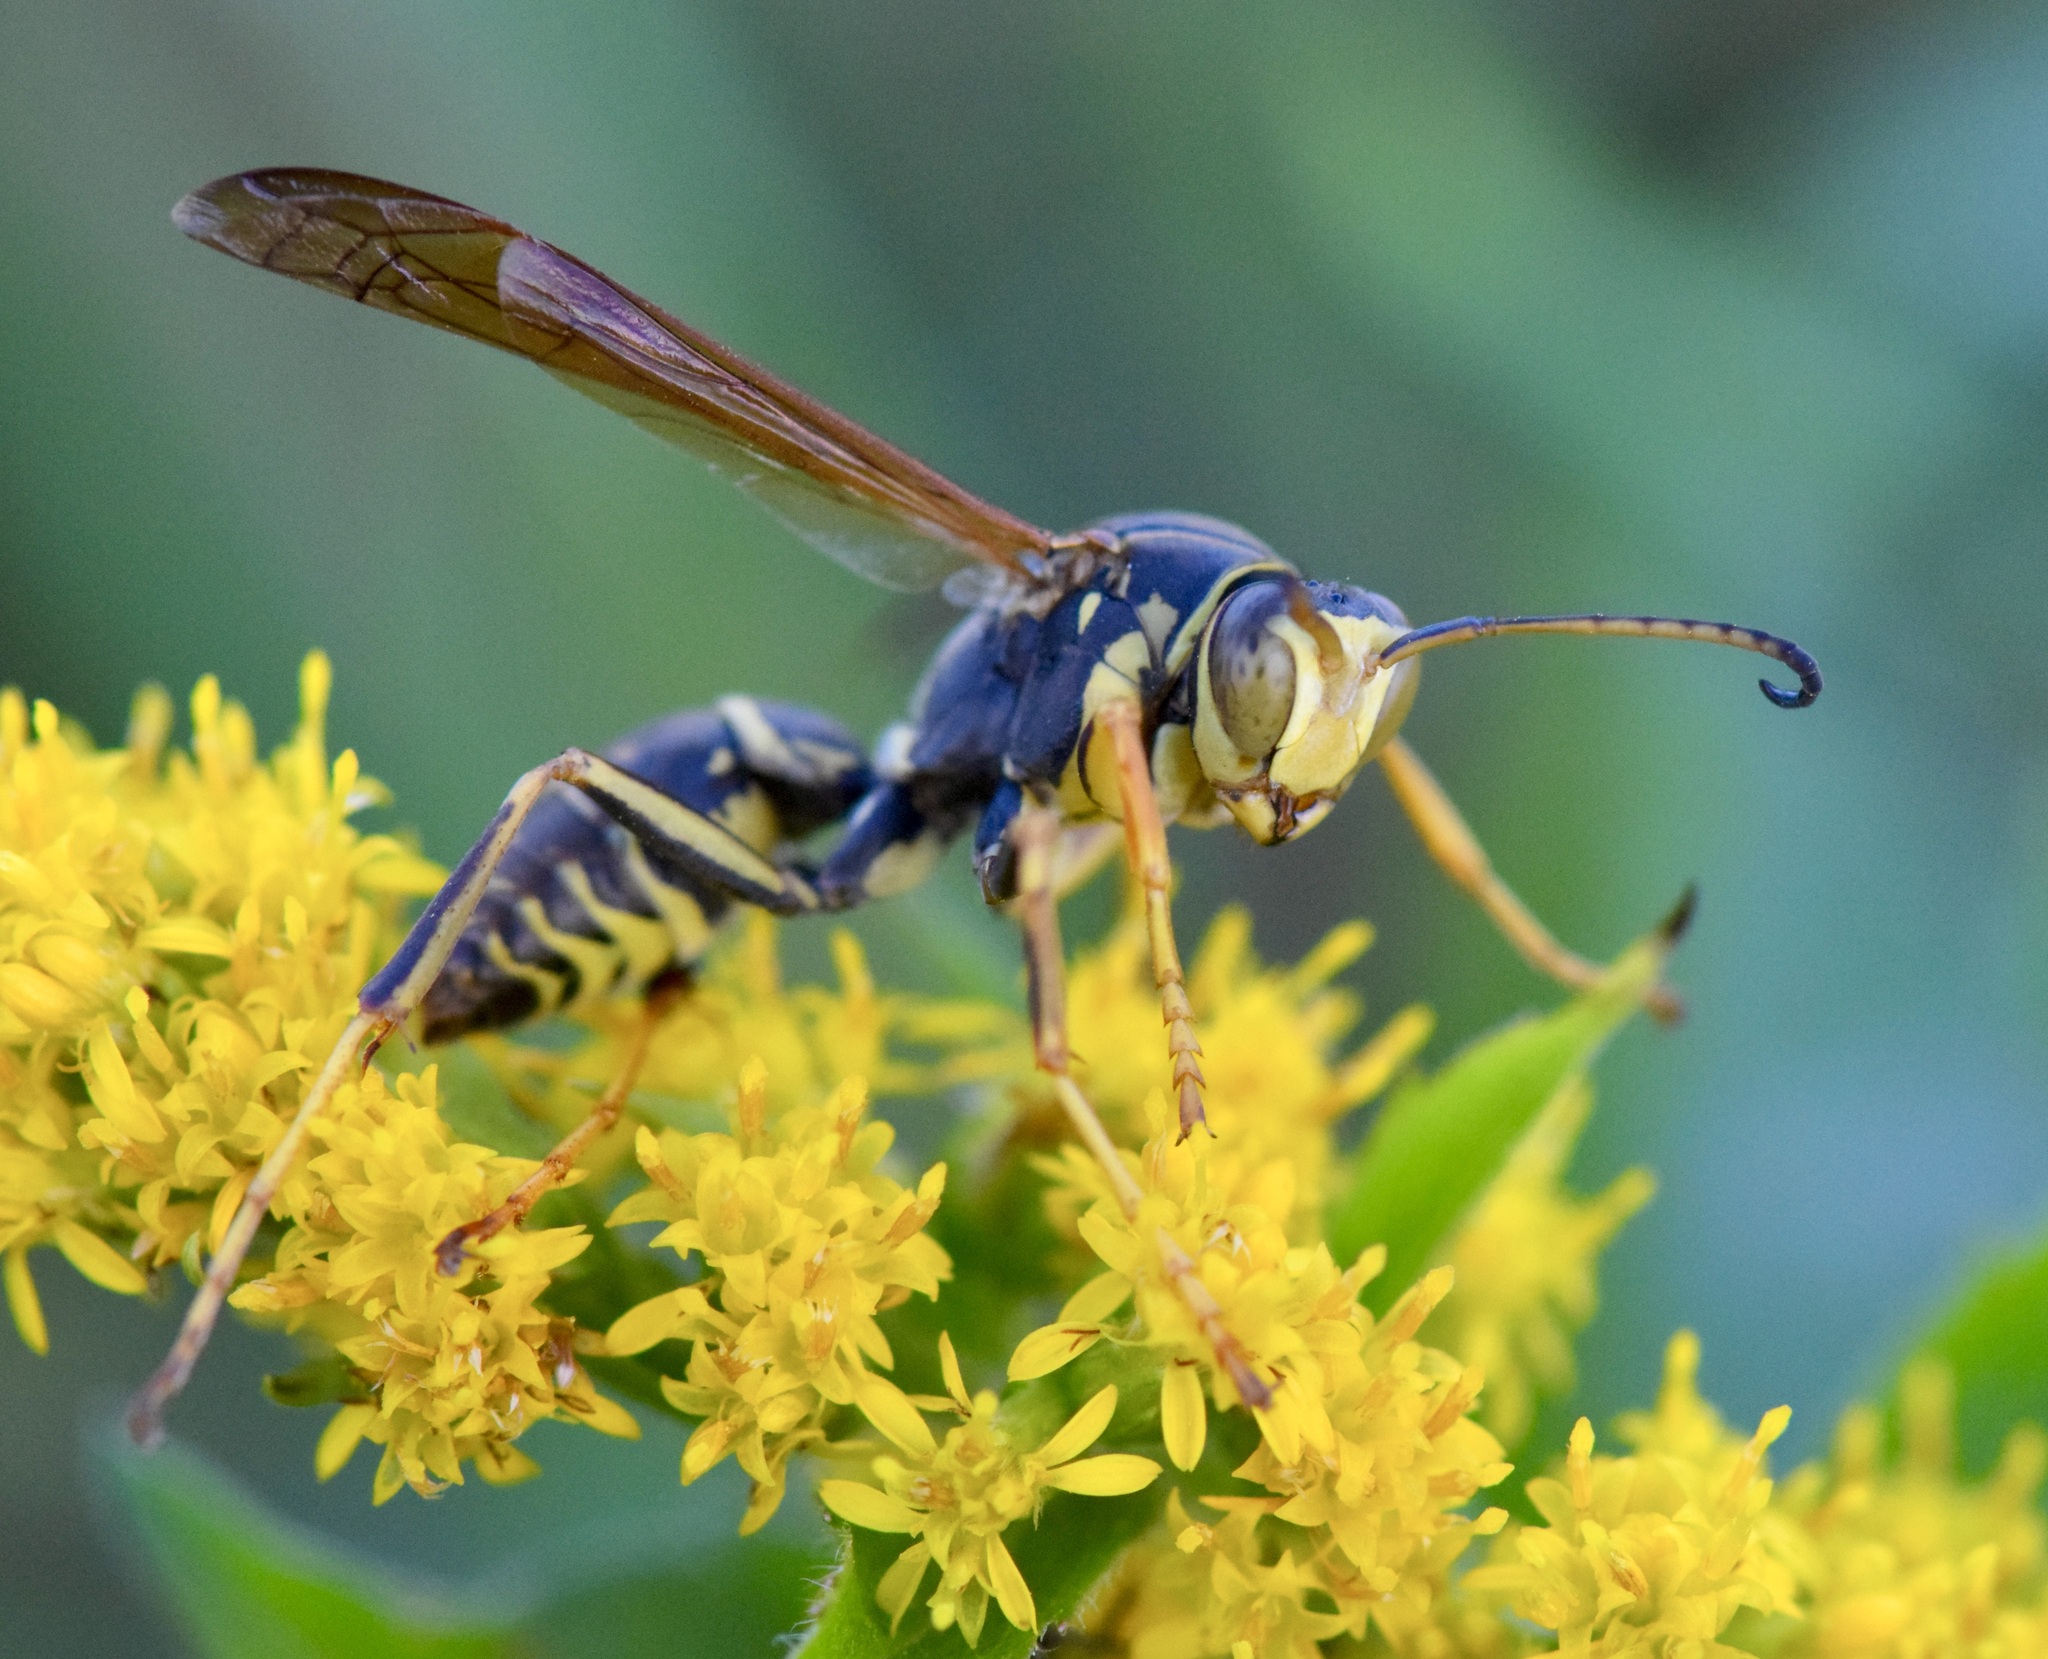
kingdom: Animalia
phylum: Arthropoda
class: Insecta
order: Hymenoptera
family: Eumenidae
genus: Polistes
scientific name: Polistes fuscatus
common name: Dark paper wasp
